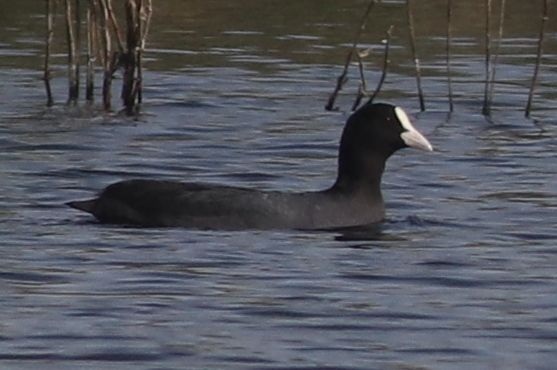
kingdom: Animalia
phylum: Chordata
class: Aves
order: Gruiformes
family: Rallidae
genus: Fulica
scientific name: Fulica atra
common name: Eurasian coot
